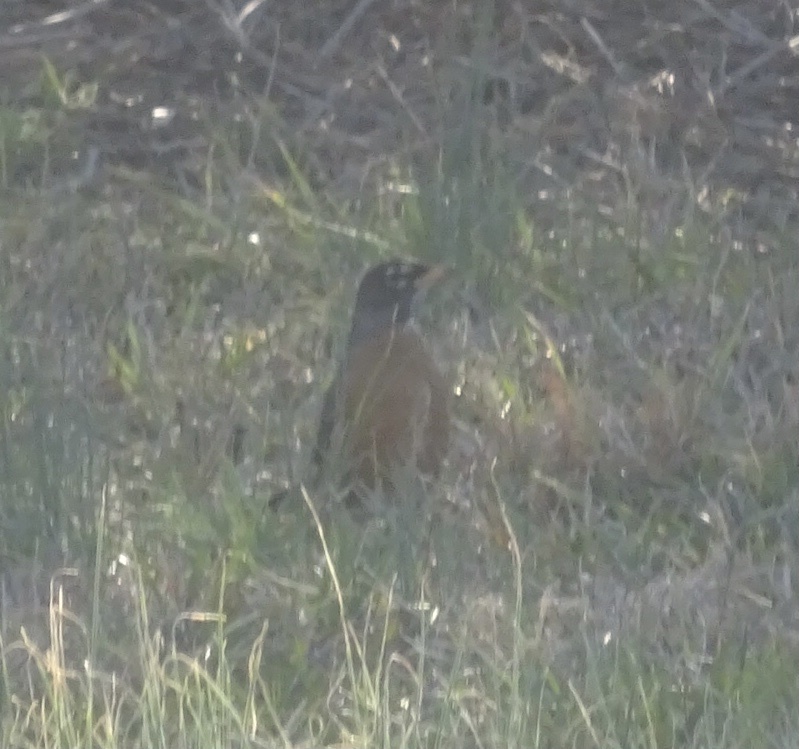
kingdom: Animalia
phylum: Chordata
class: Aves
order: Passeriformes
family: Turdidae
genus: Turdus
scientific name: Turdus migratorius
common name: American robin
